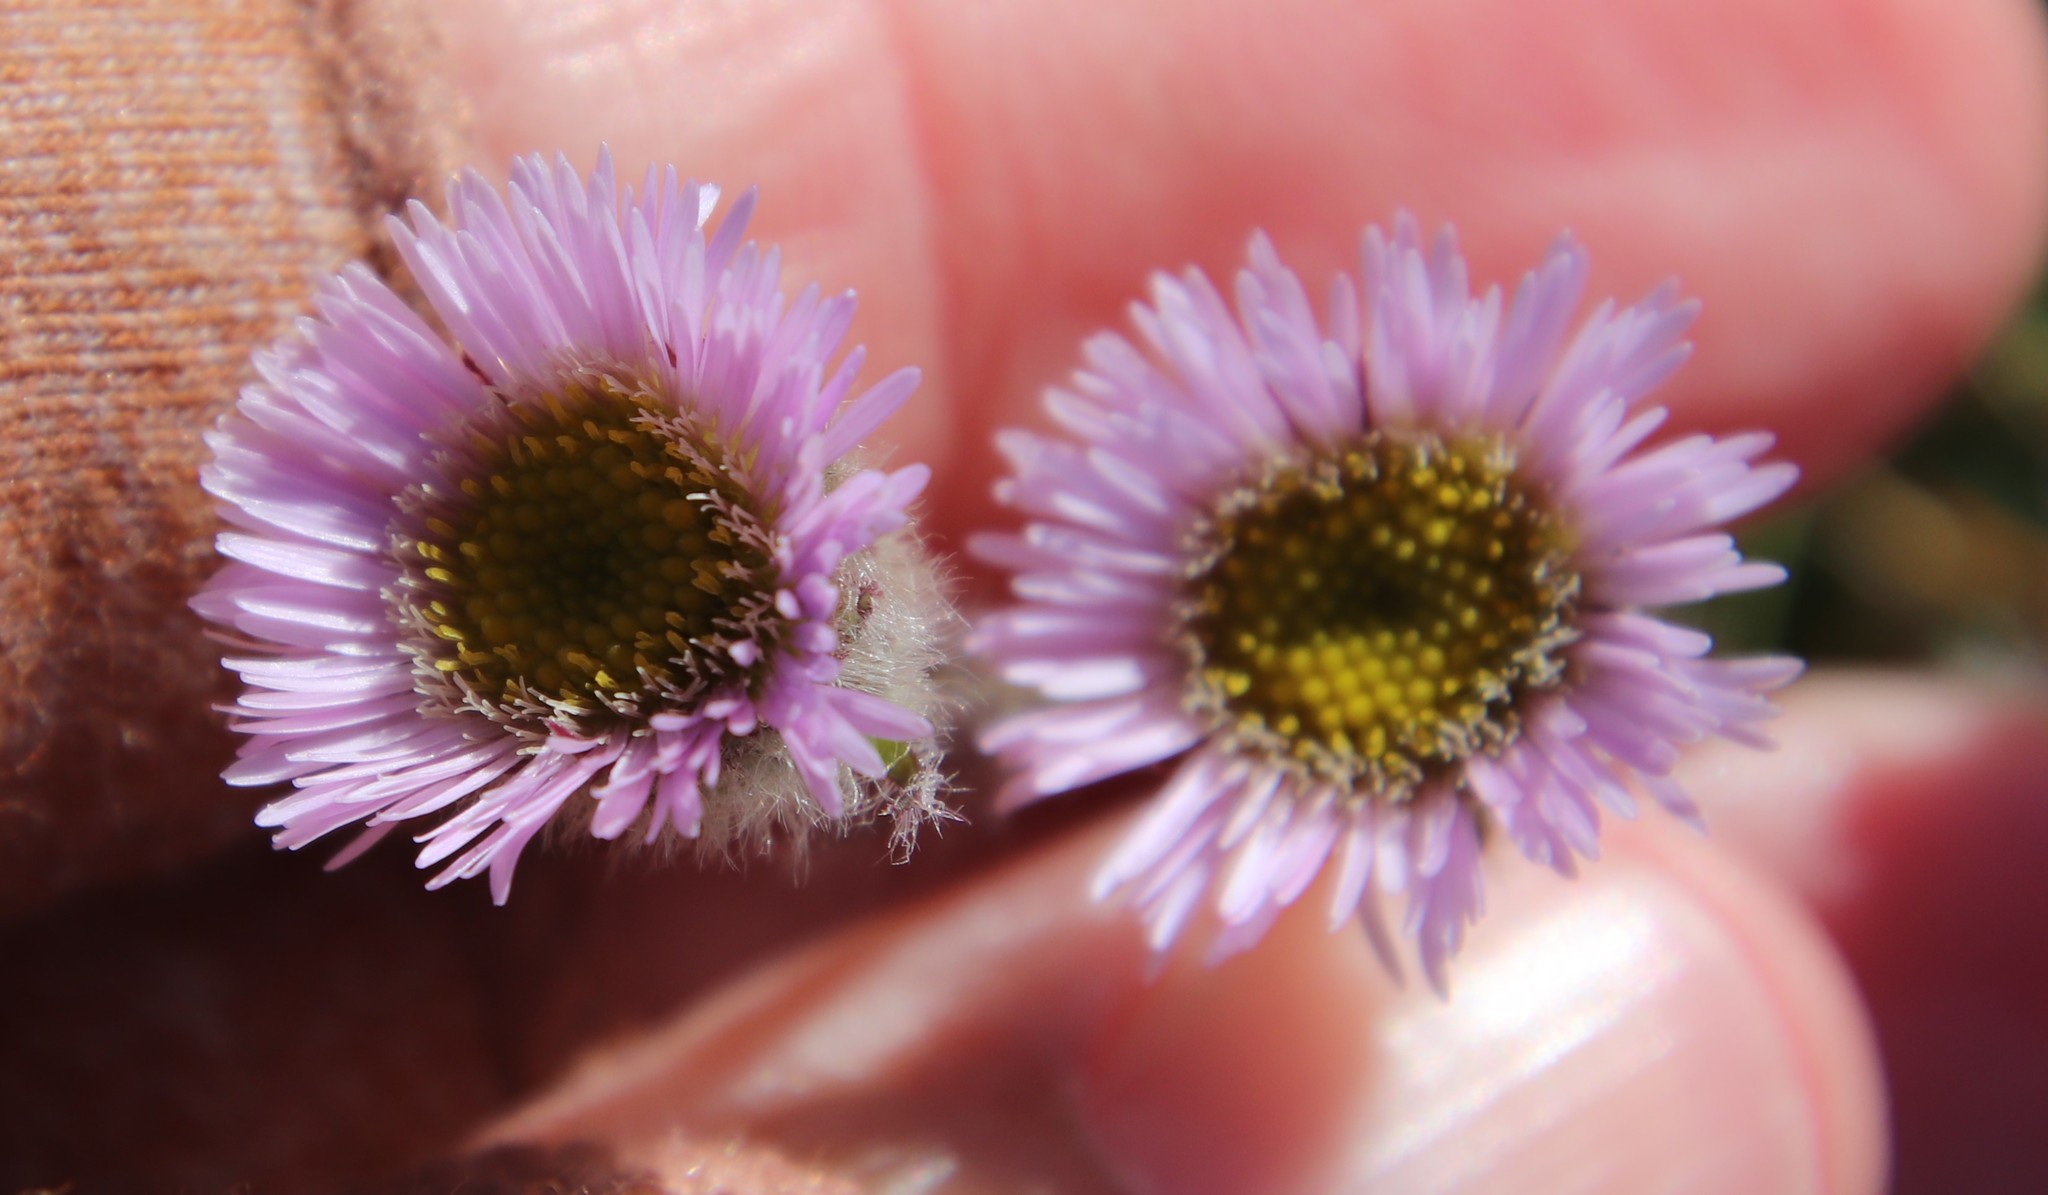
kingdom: Plantae
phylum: Tracheophyta
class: Magnoliopsida
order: Asterales
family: Asteraceae
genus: Erigeron
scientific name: Erigeron borealis
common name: Alpine fleabane
